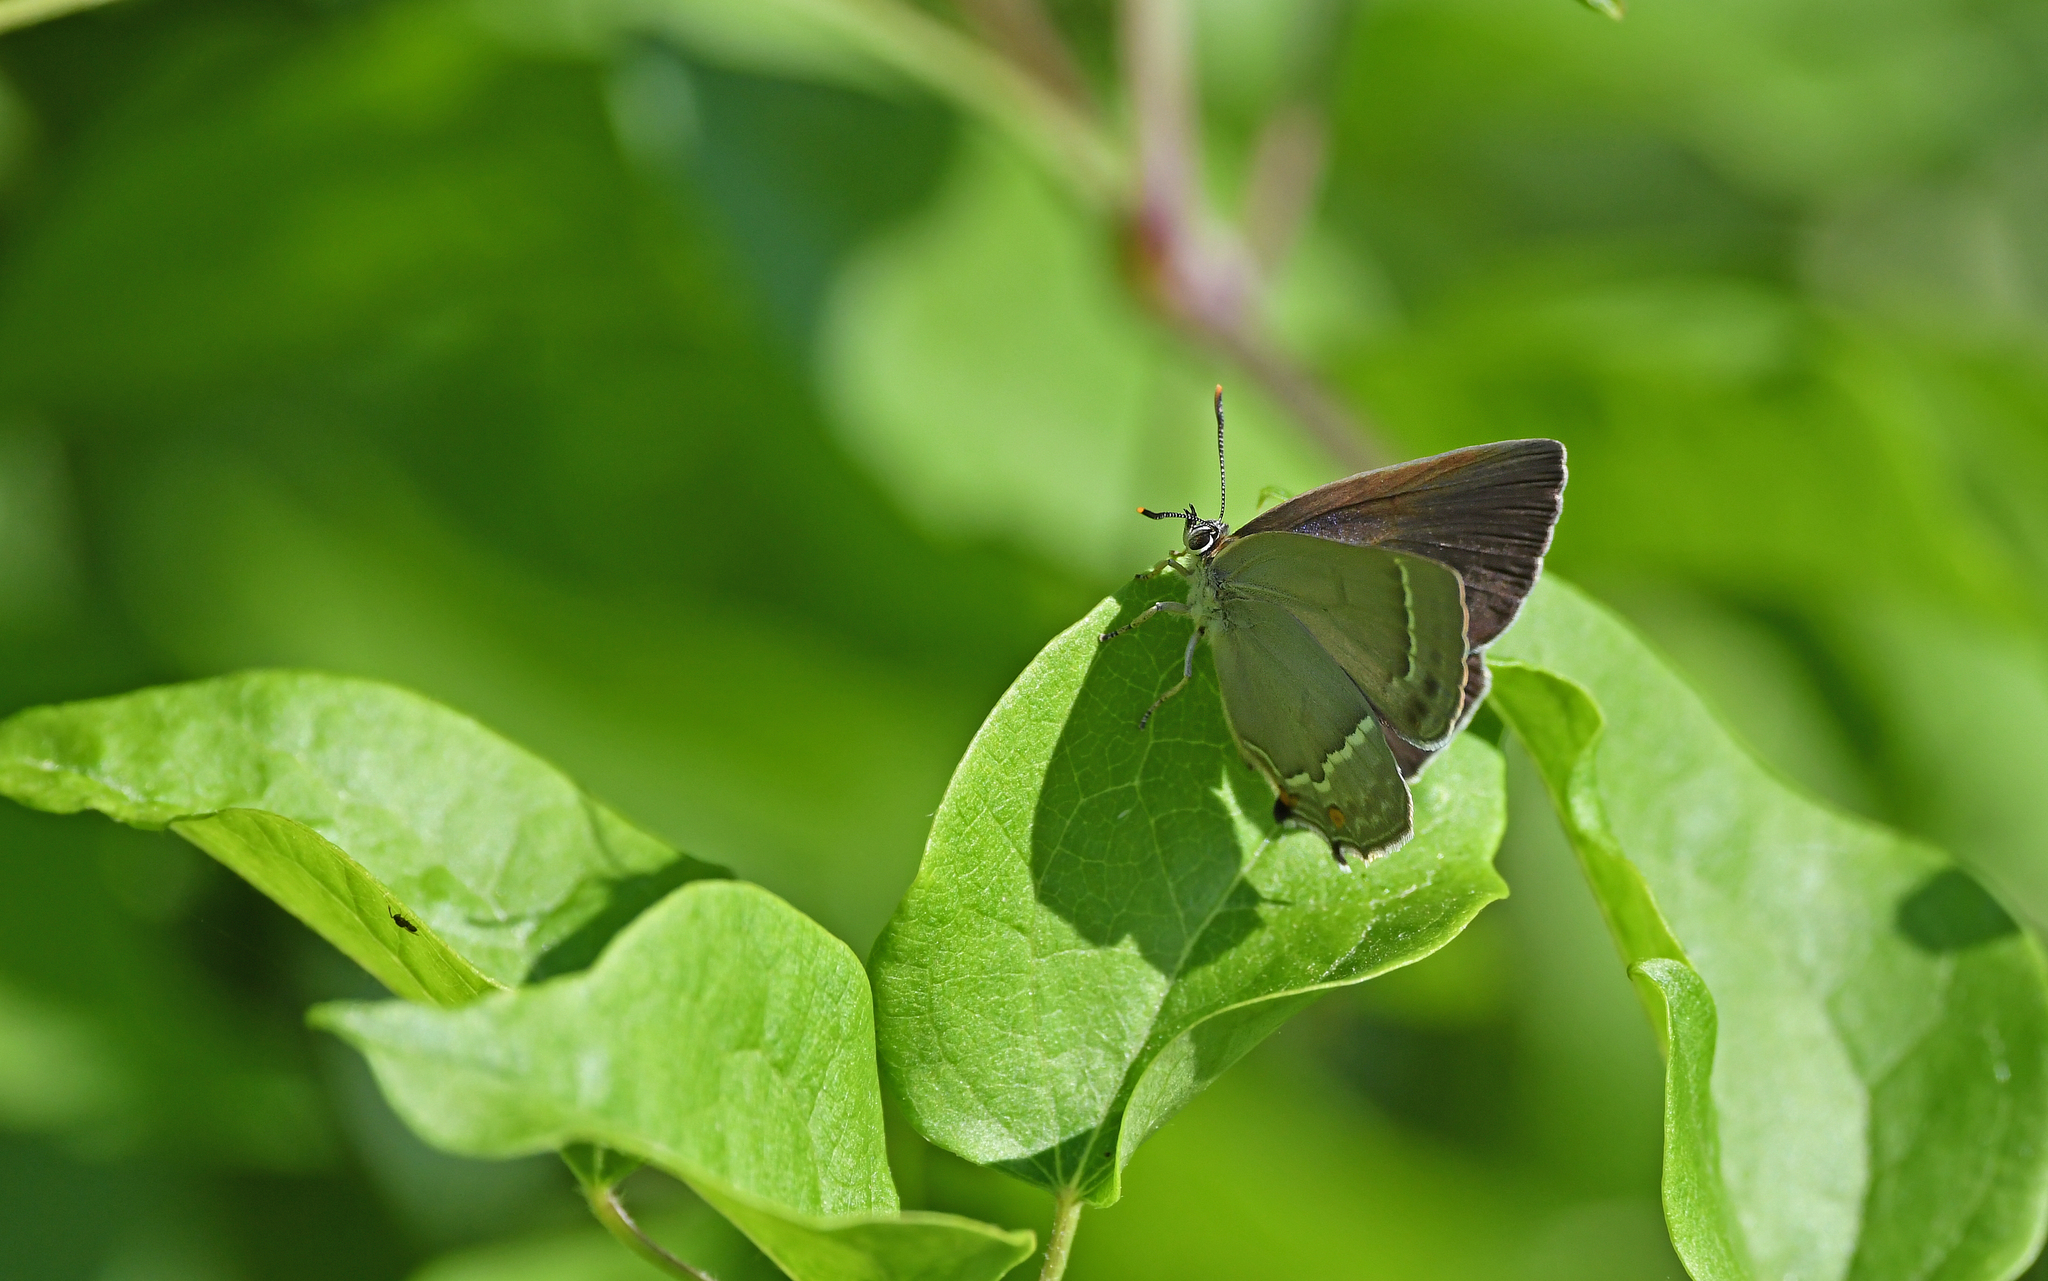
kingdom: Animalia
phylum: Arthropoda
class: Insecta
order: Lepidoptera
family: Lycaenidae
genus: Quercusia
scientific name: Quercusia quercus
